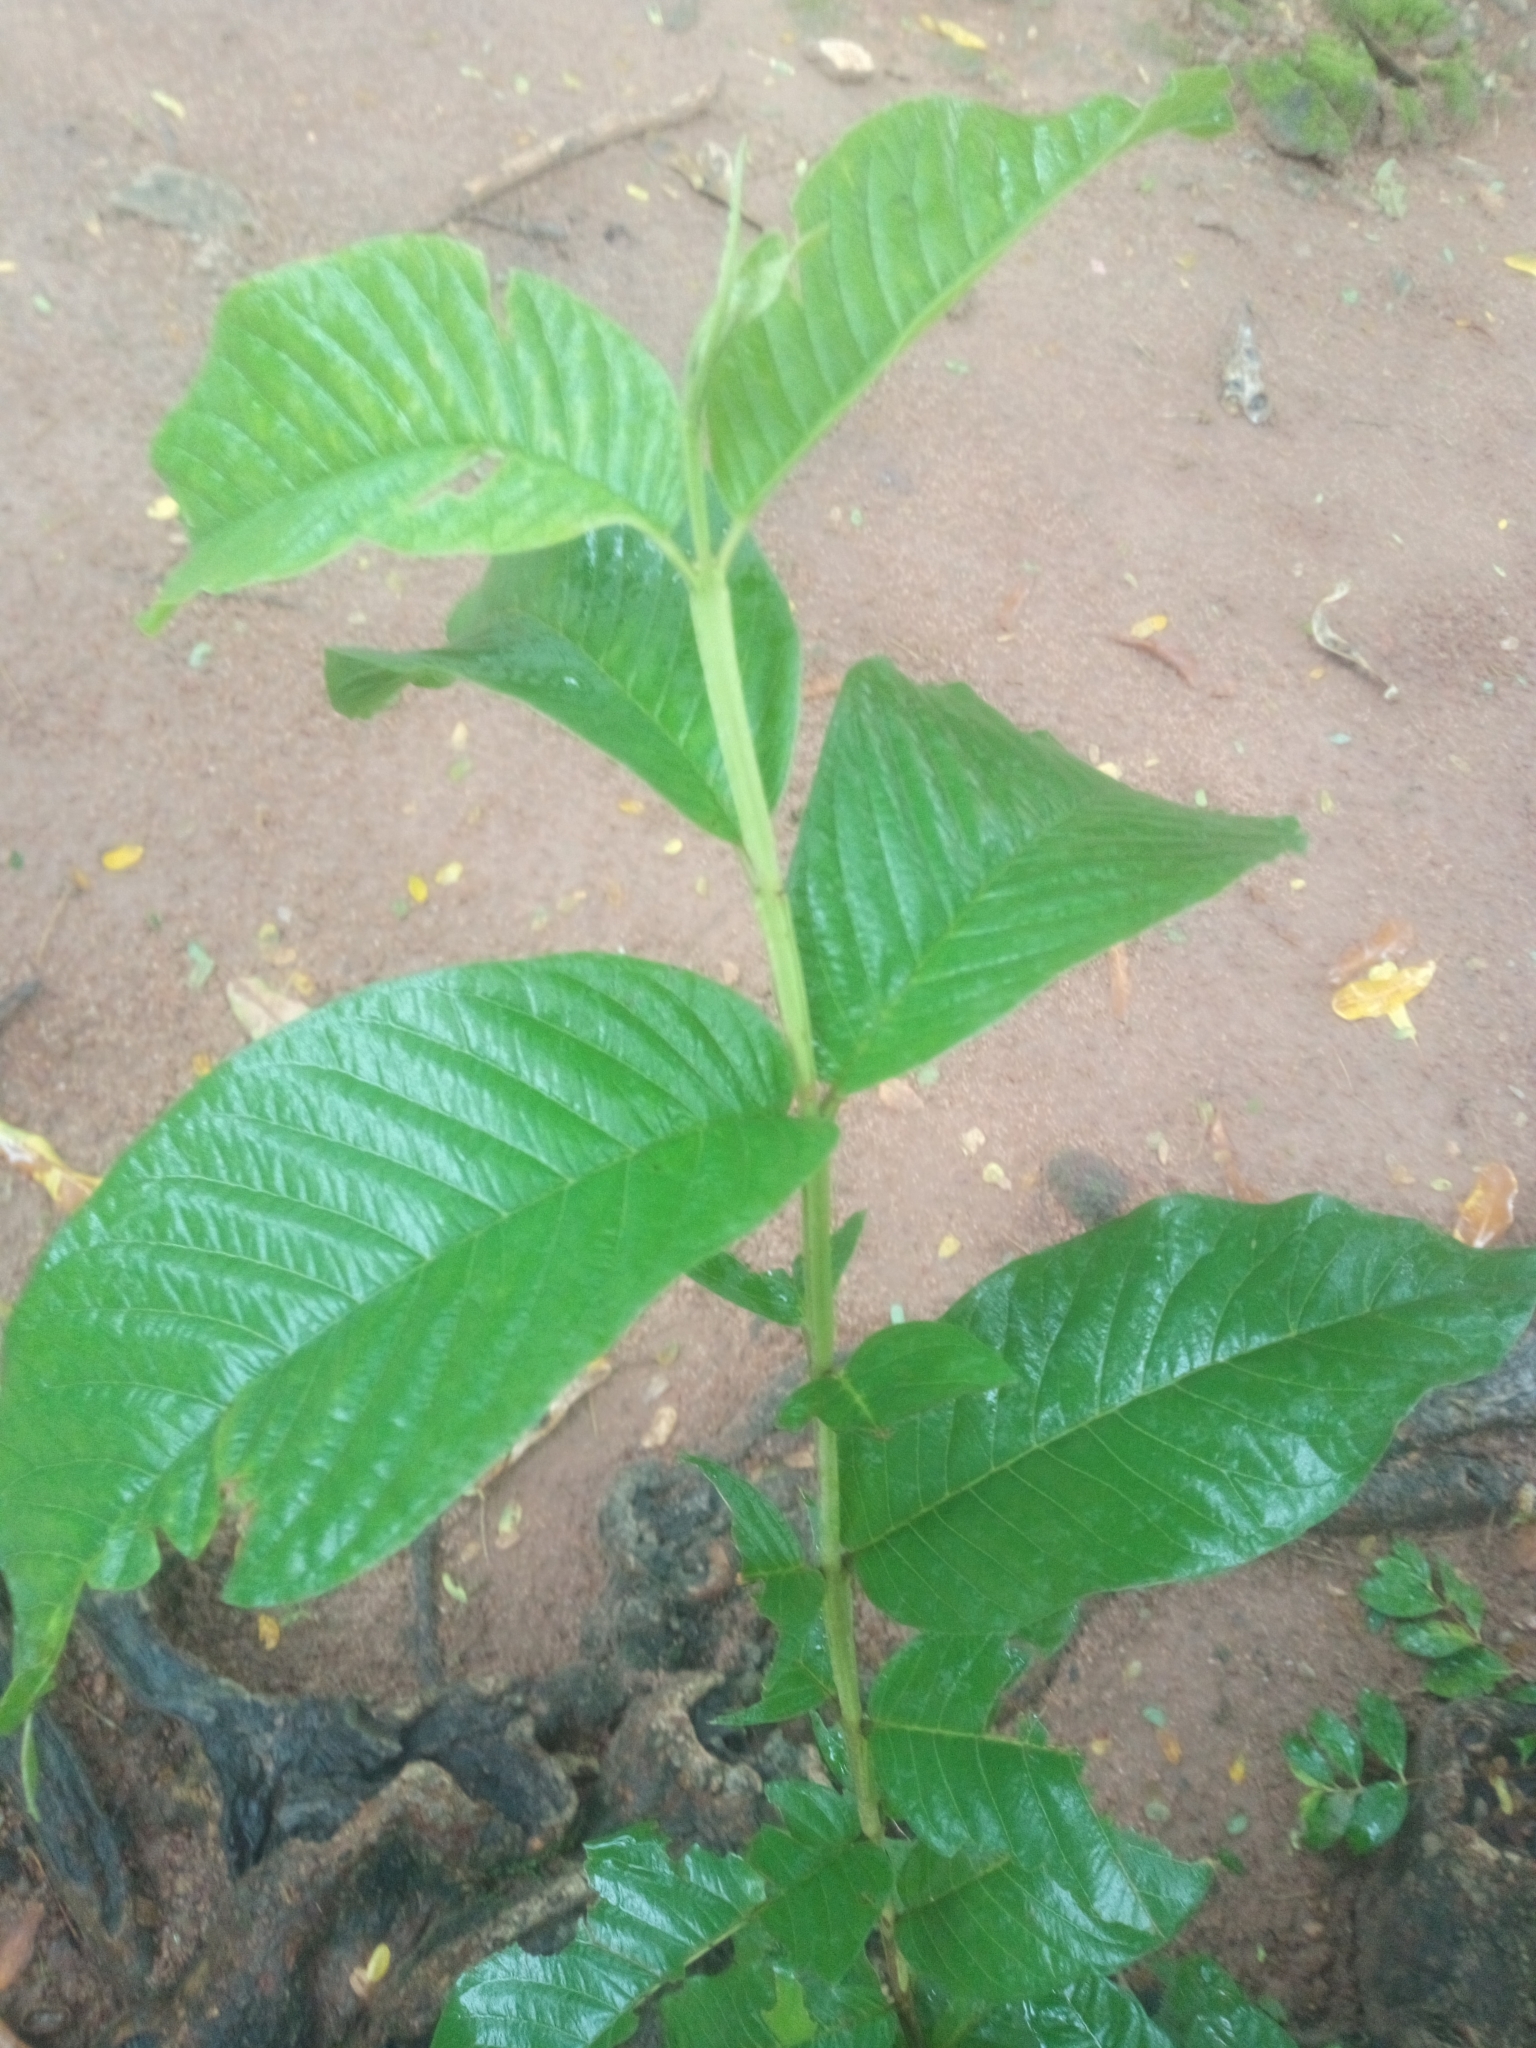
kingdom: Plantae
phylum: Tracheophyta
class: Magnoliopsida
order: Myrtales
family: Myrtaceae
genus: Psidium
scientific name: Psidium guajava
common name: Guava
